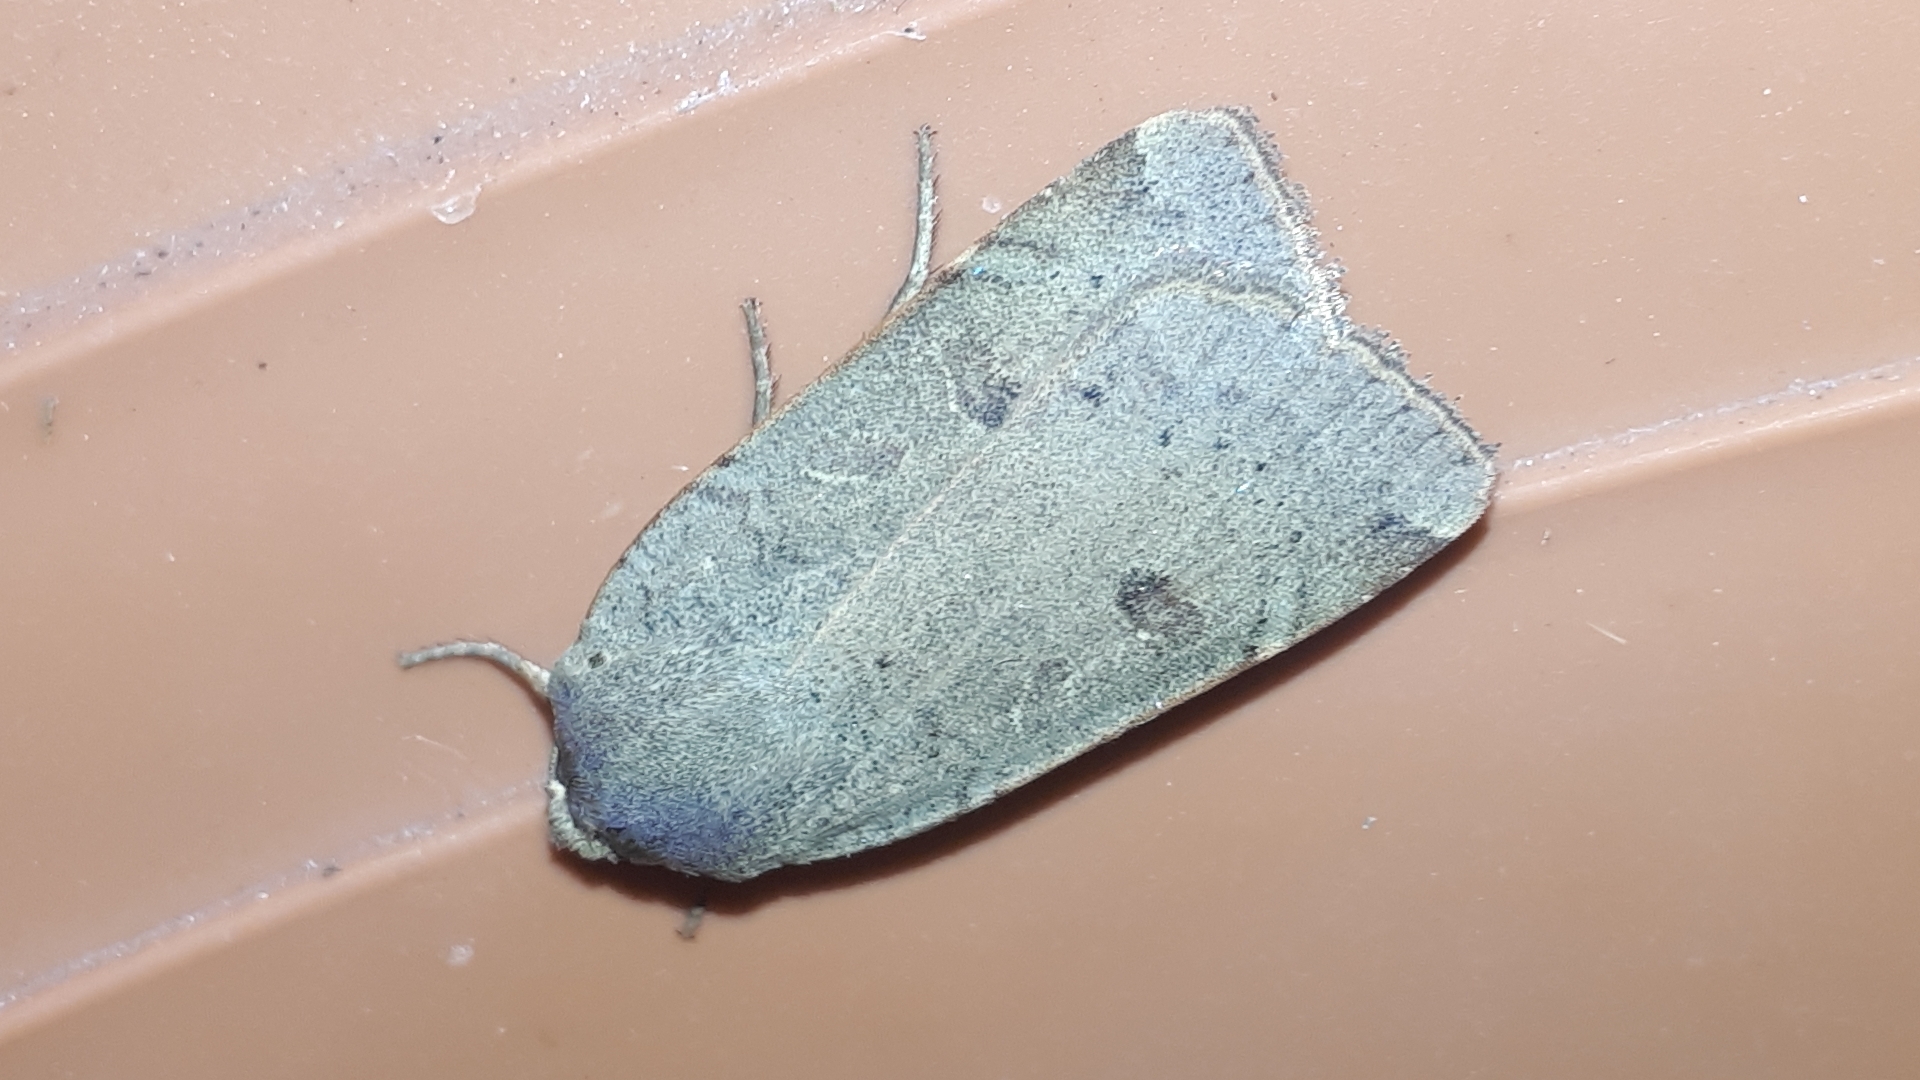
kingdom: Animalia
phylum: Arthropoda
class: Insecta
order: Lepidoptera
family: Noctuidae
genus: Noctua
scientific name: Noctua comes
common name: Lesser yellow underwing
